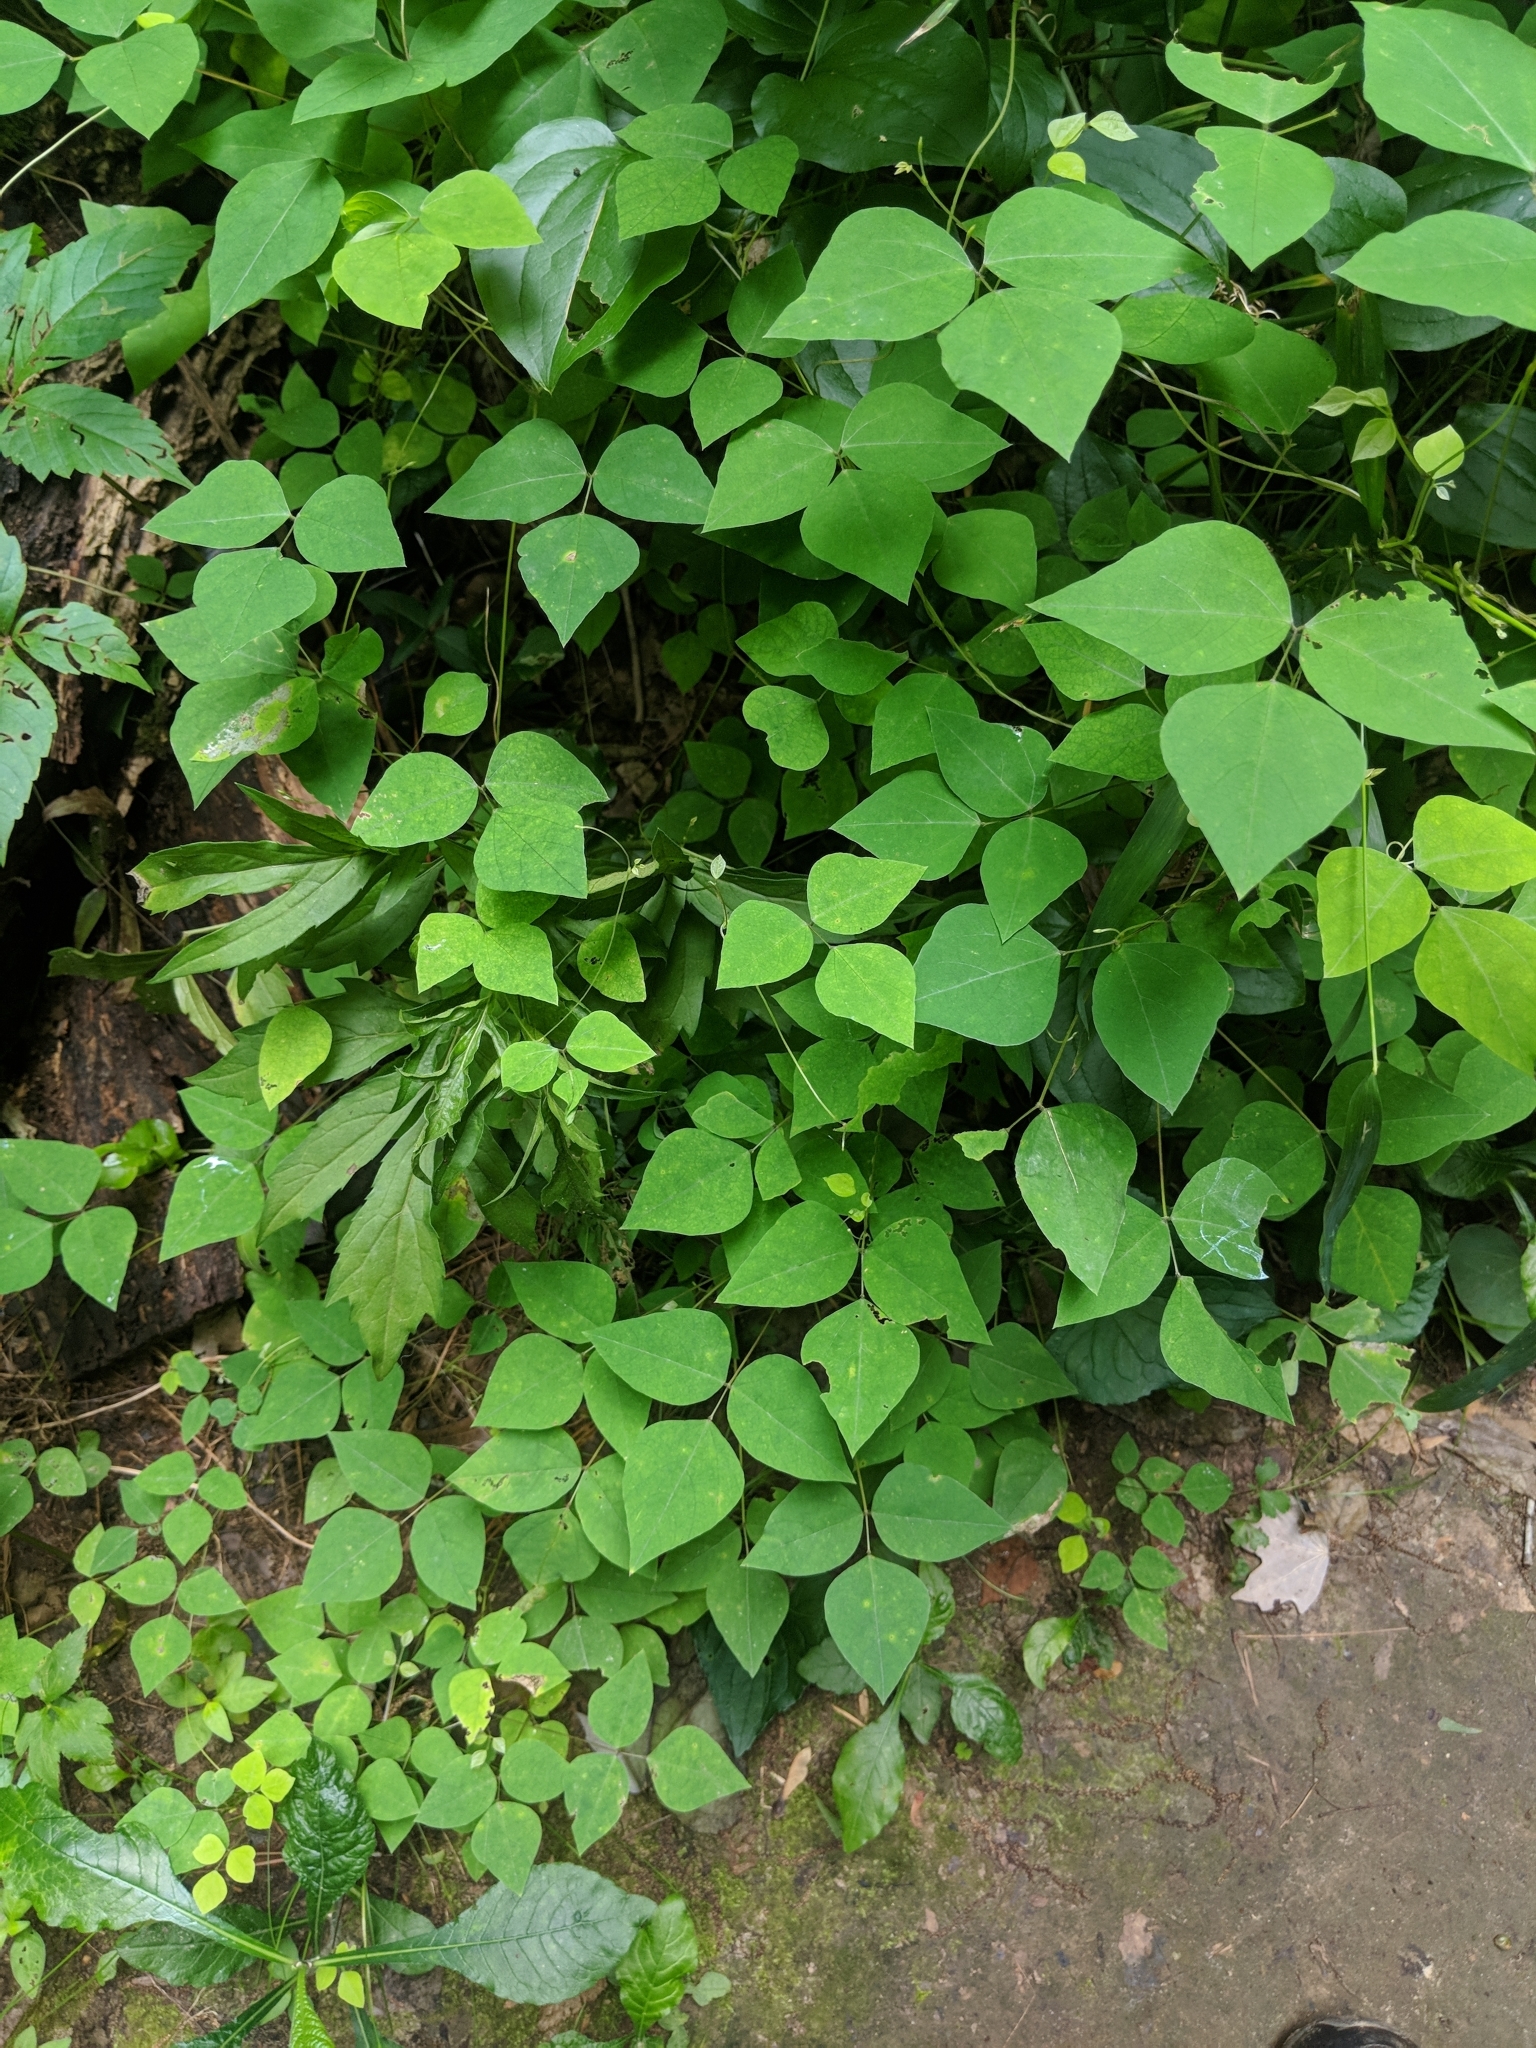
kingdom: Plantae
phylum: Tracheophyta
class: Magnoliopsida
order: Fabales
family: Fabaceae
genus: Amphicarpaea
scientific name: Amphicarpaea bracteata
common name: American hog peanut
